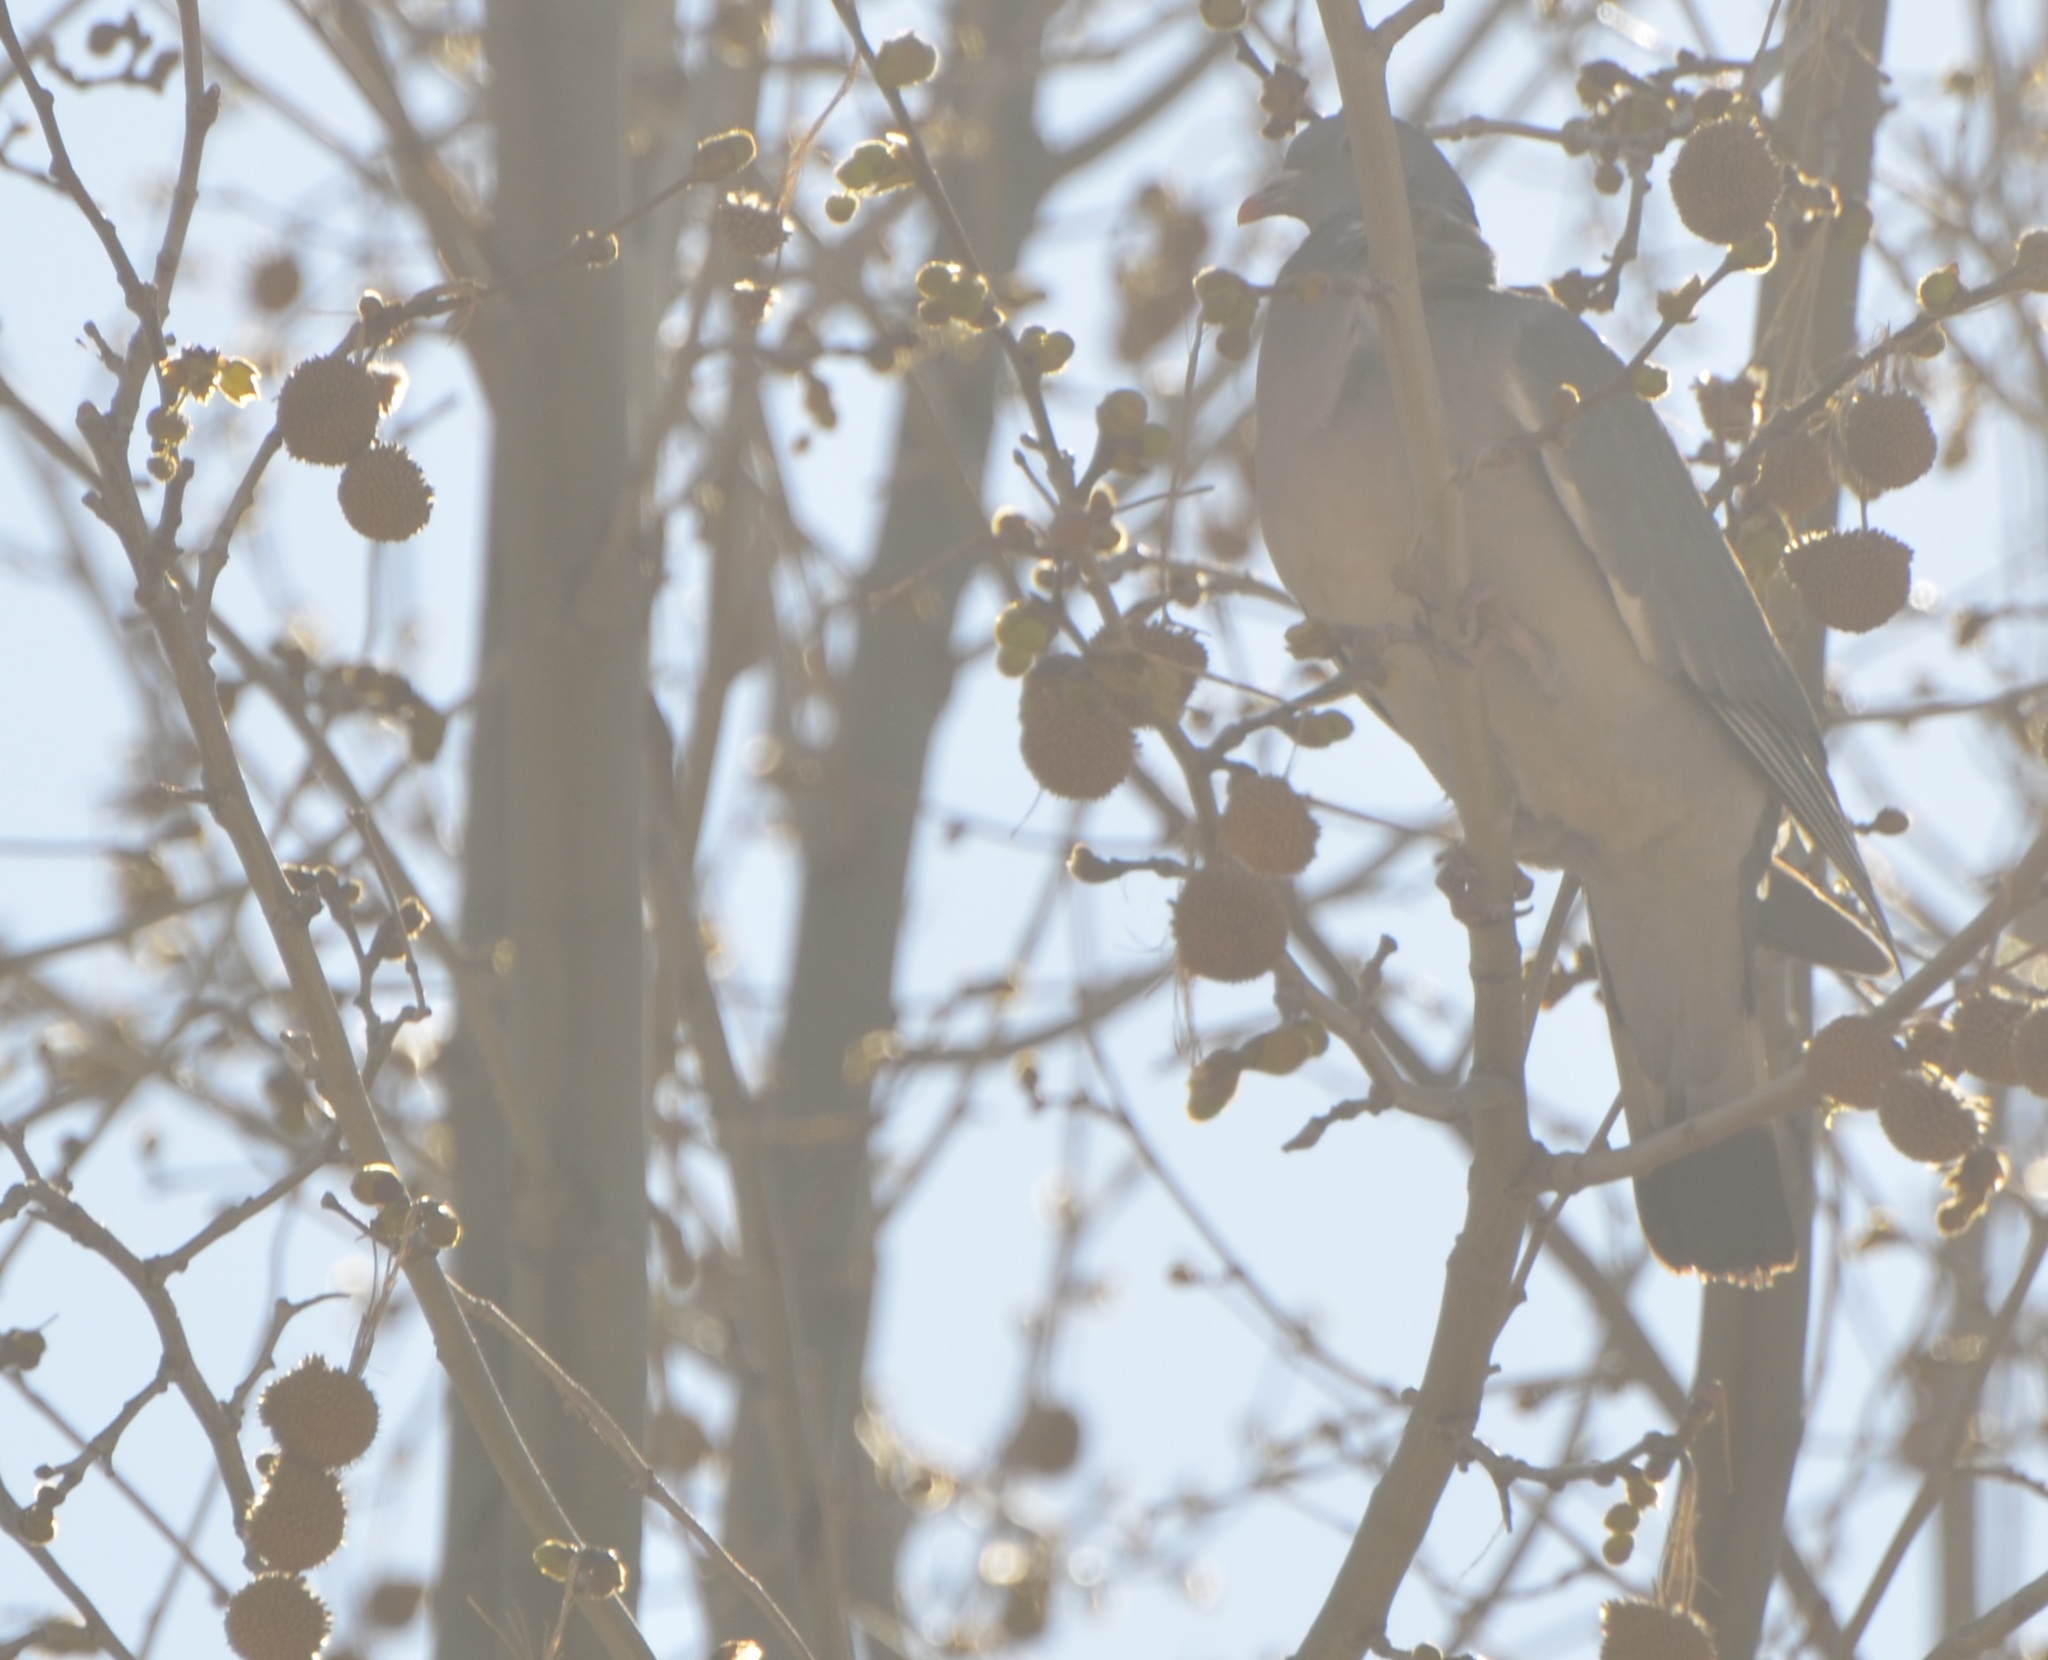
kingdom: Animalia
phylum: Chordata
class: Aves
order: Columbiformes
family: Columbidae
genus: Columba
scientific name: Columba palumbus
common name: Common wood pigeon
